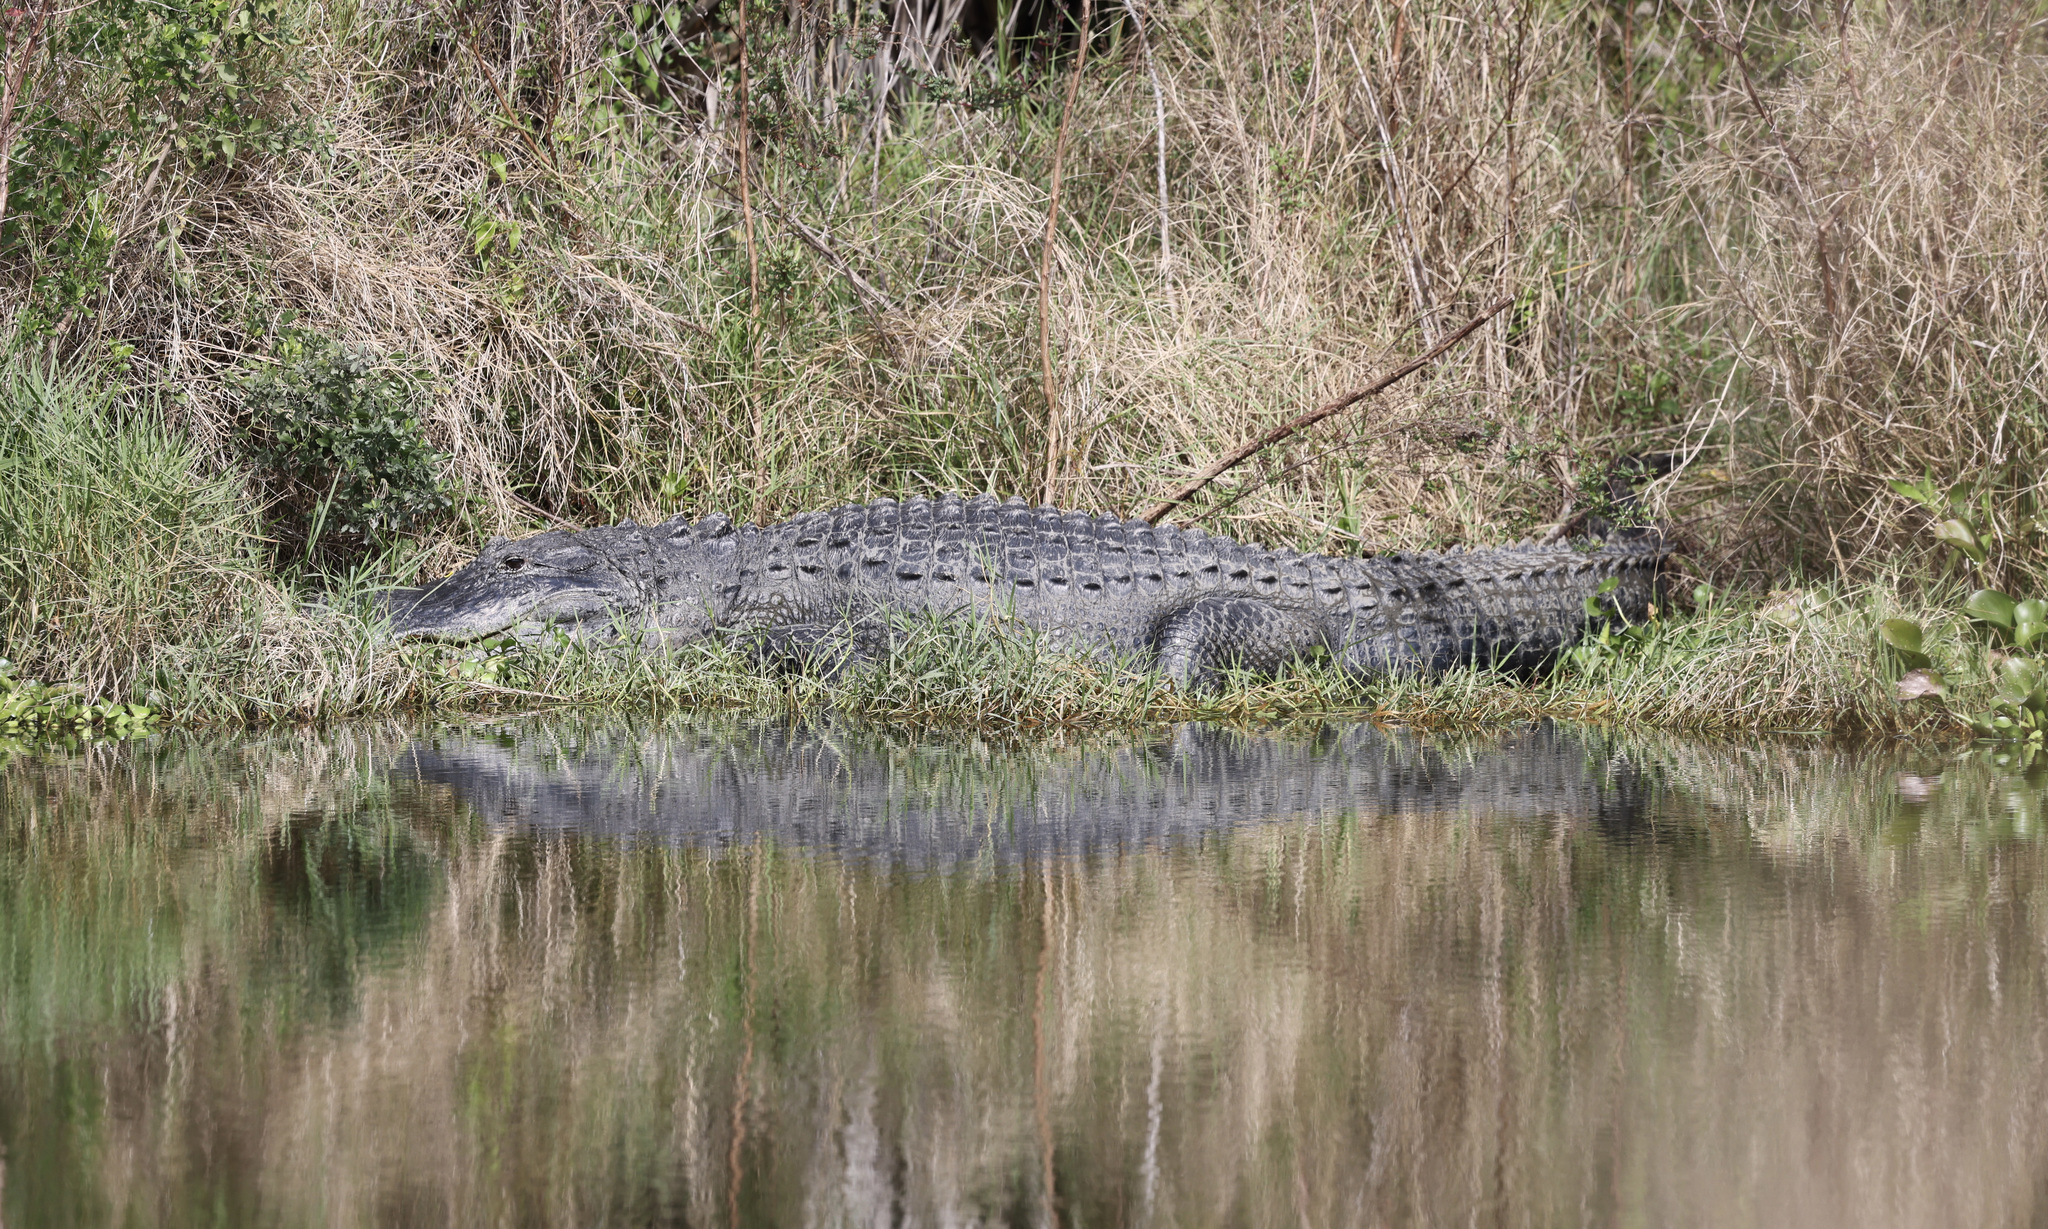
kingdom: Animalia
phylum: Chordata
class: Crocodylia
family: Alligatoridae
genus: Alligator
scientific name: Alligator mississippiensis
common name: American alligator
